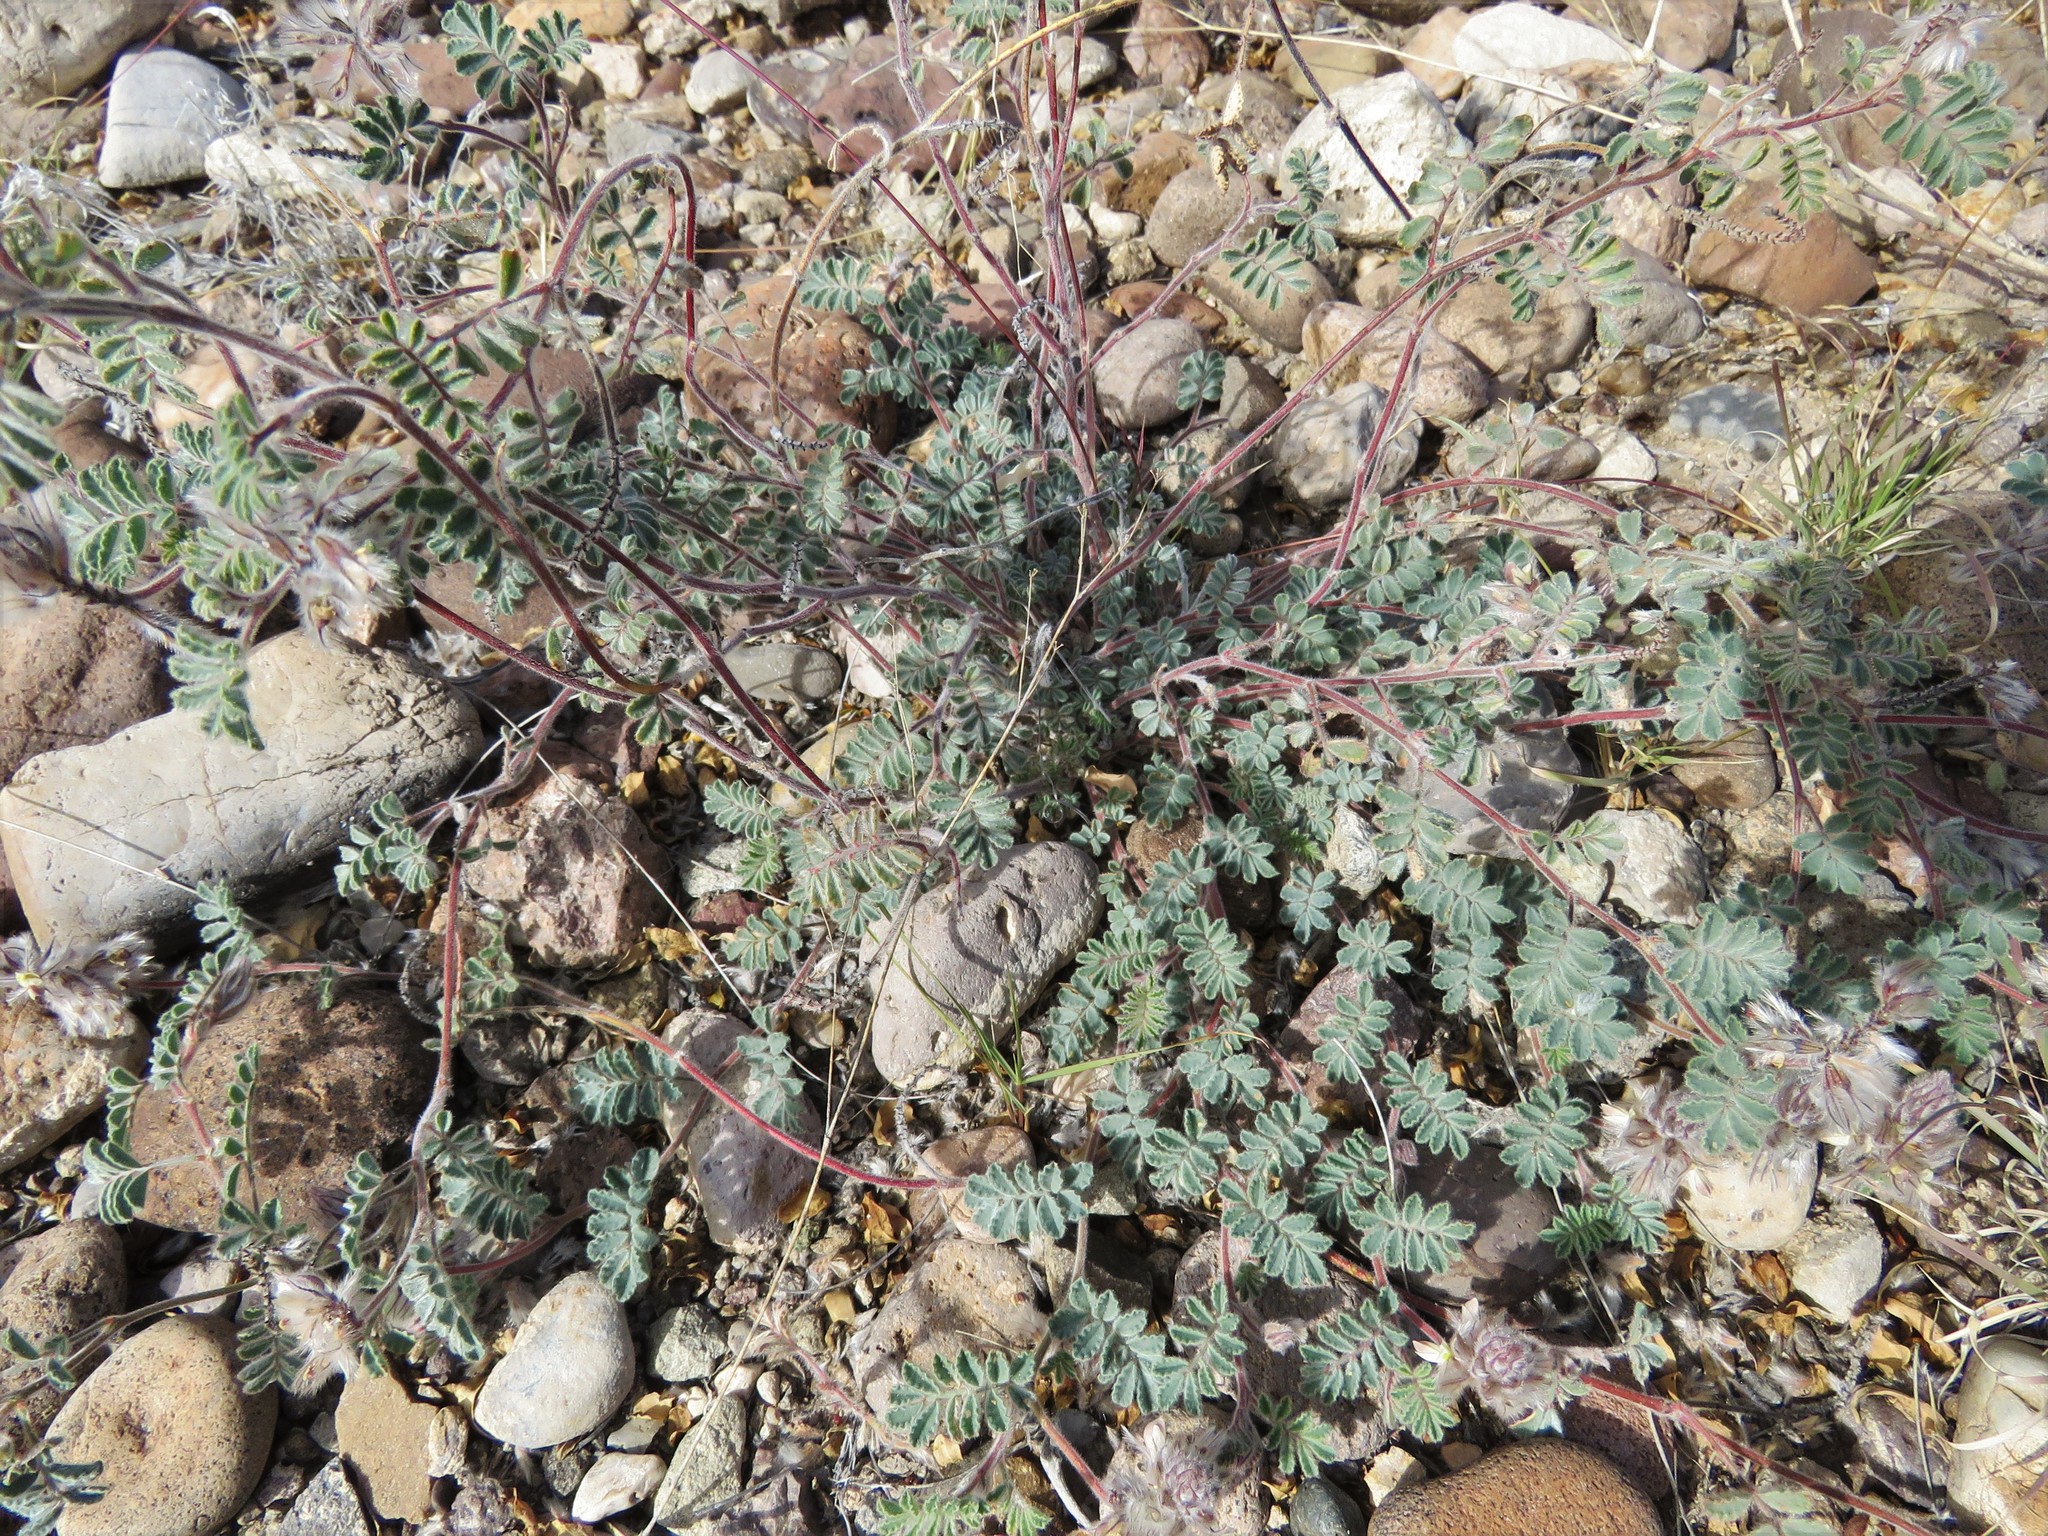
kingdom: Plantae
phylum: Tracheophyta
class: Magnoliopsida
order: Fabales
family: Fabaceae
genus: Dalea
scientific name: Dalea neomexicana
